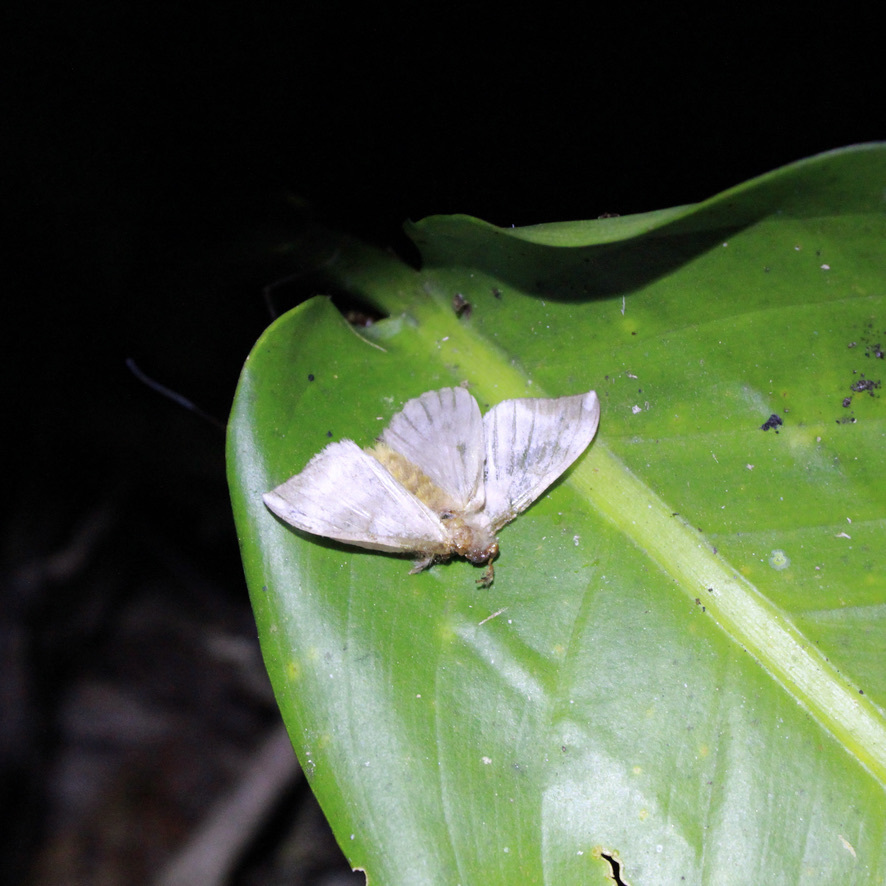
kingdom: Animalia
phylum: Arthropoda
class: Insecta
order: Lepidoptera
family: Saturniidae
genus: Hylesia
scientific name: Hylesia metabus
